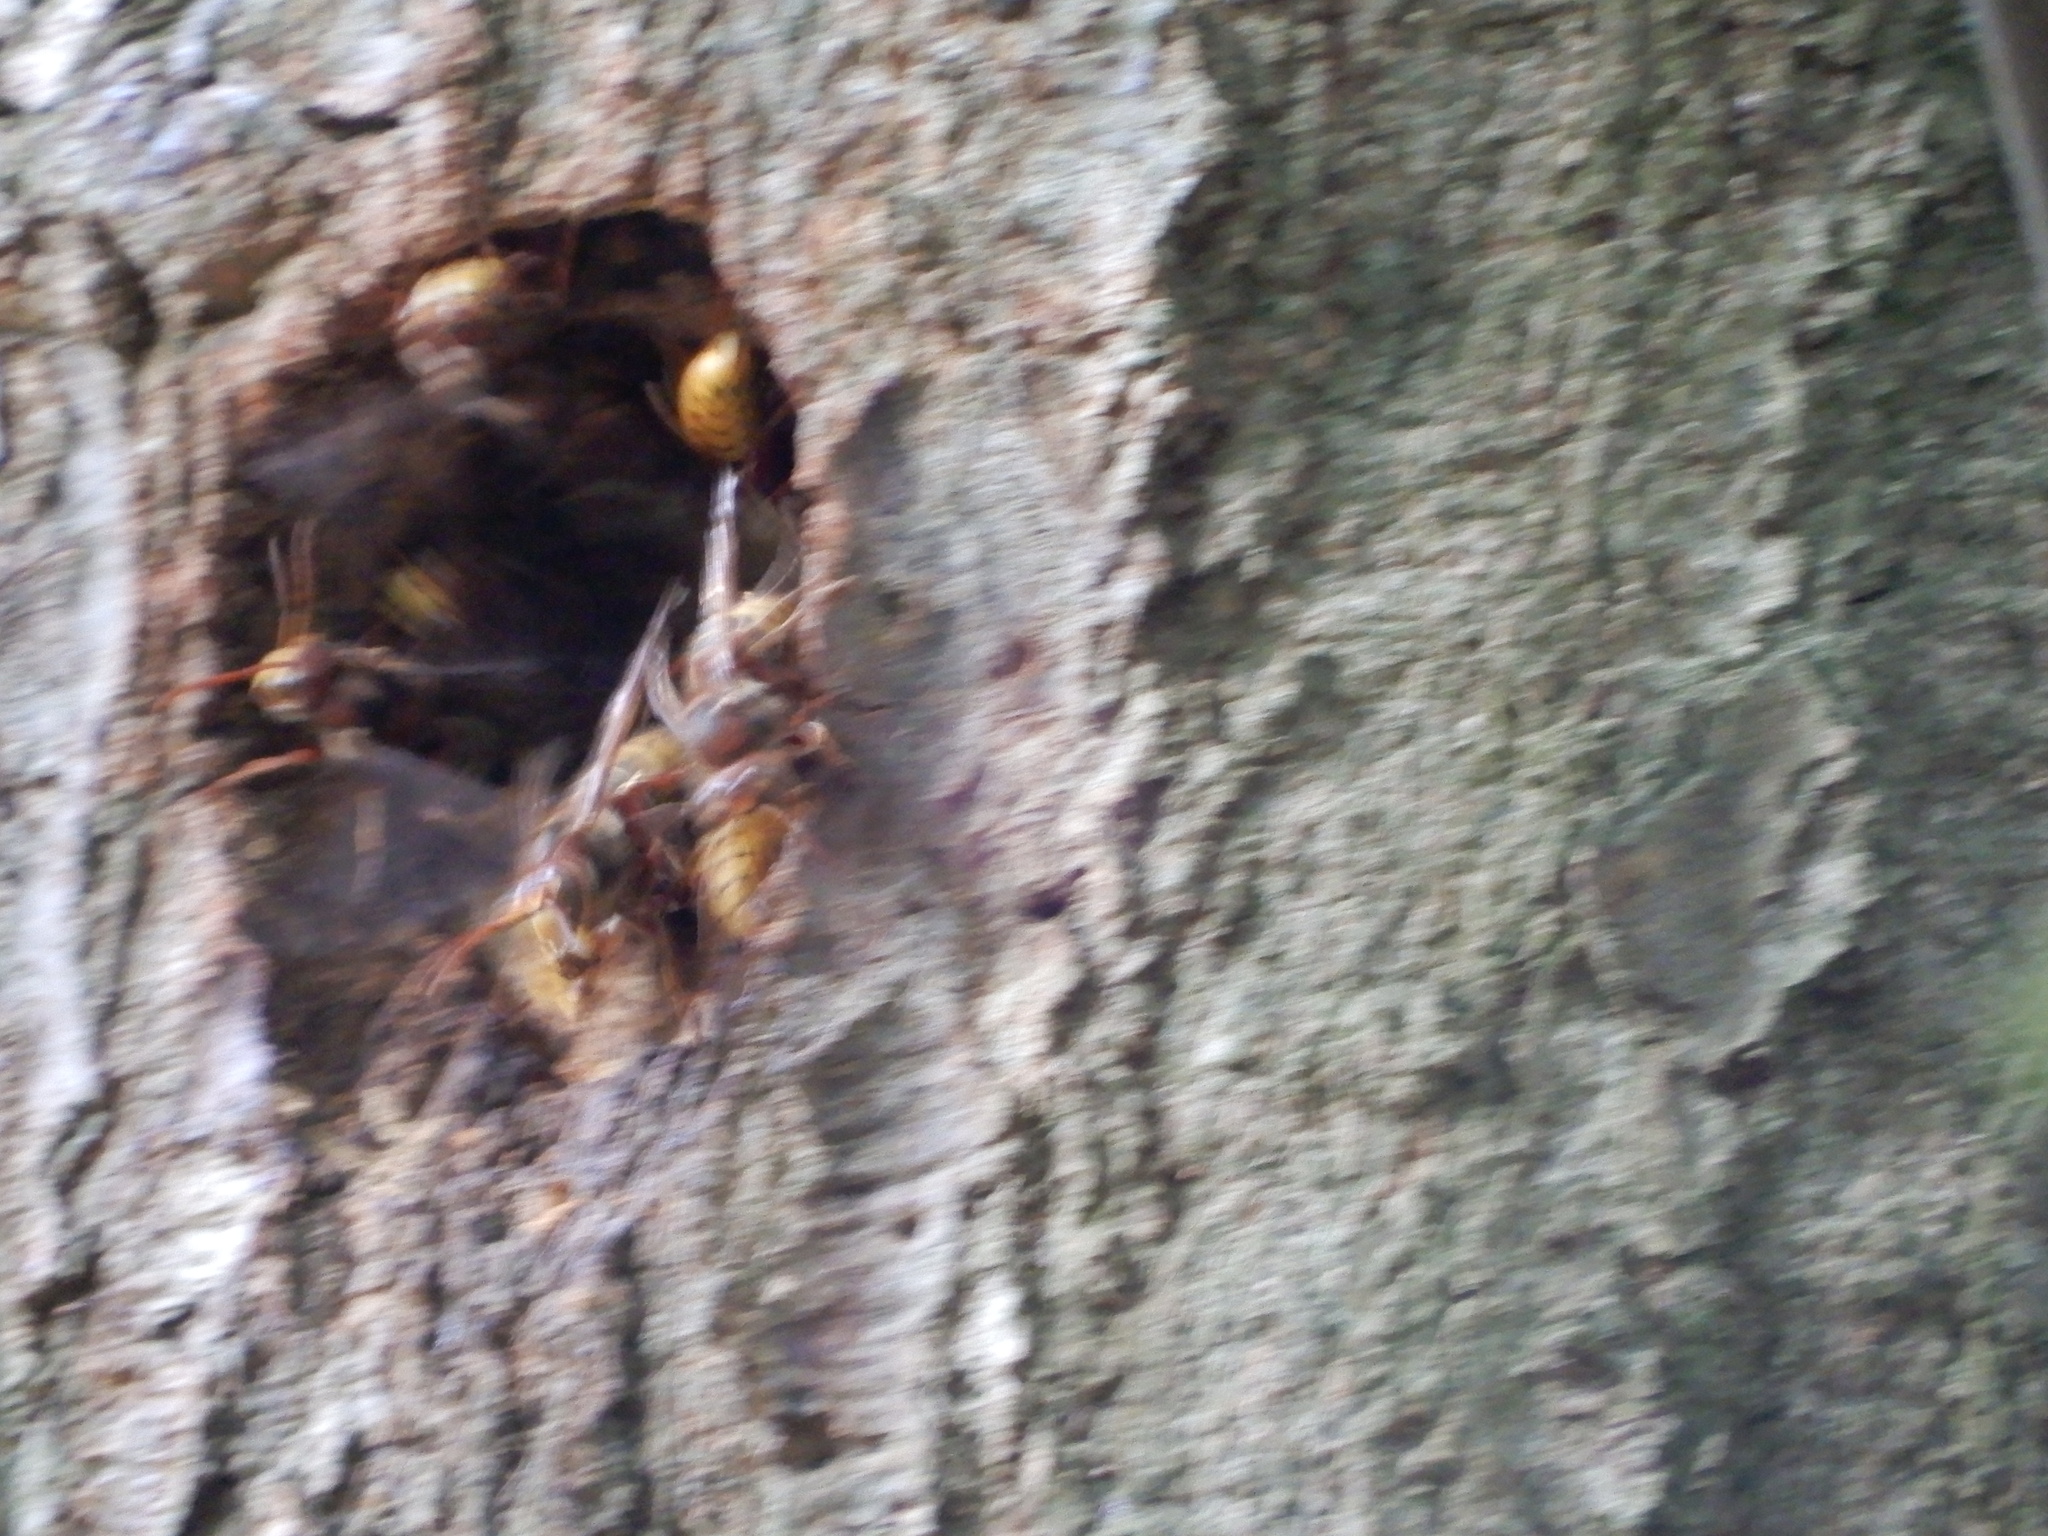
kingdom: Animalia
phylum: Arthropoda
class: Insecta
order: Hymenoptera
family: Vespidae
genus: Vespa
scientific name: Vespa crabro
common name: Hornet
